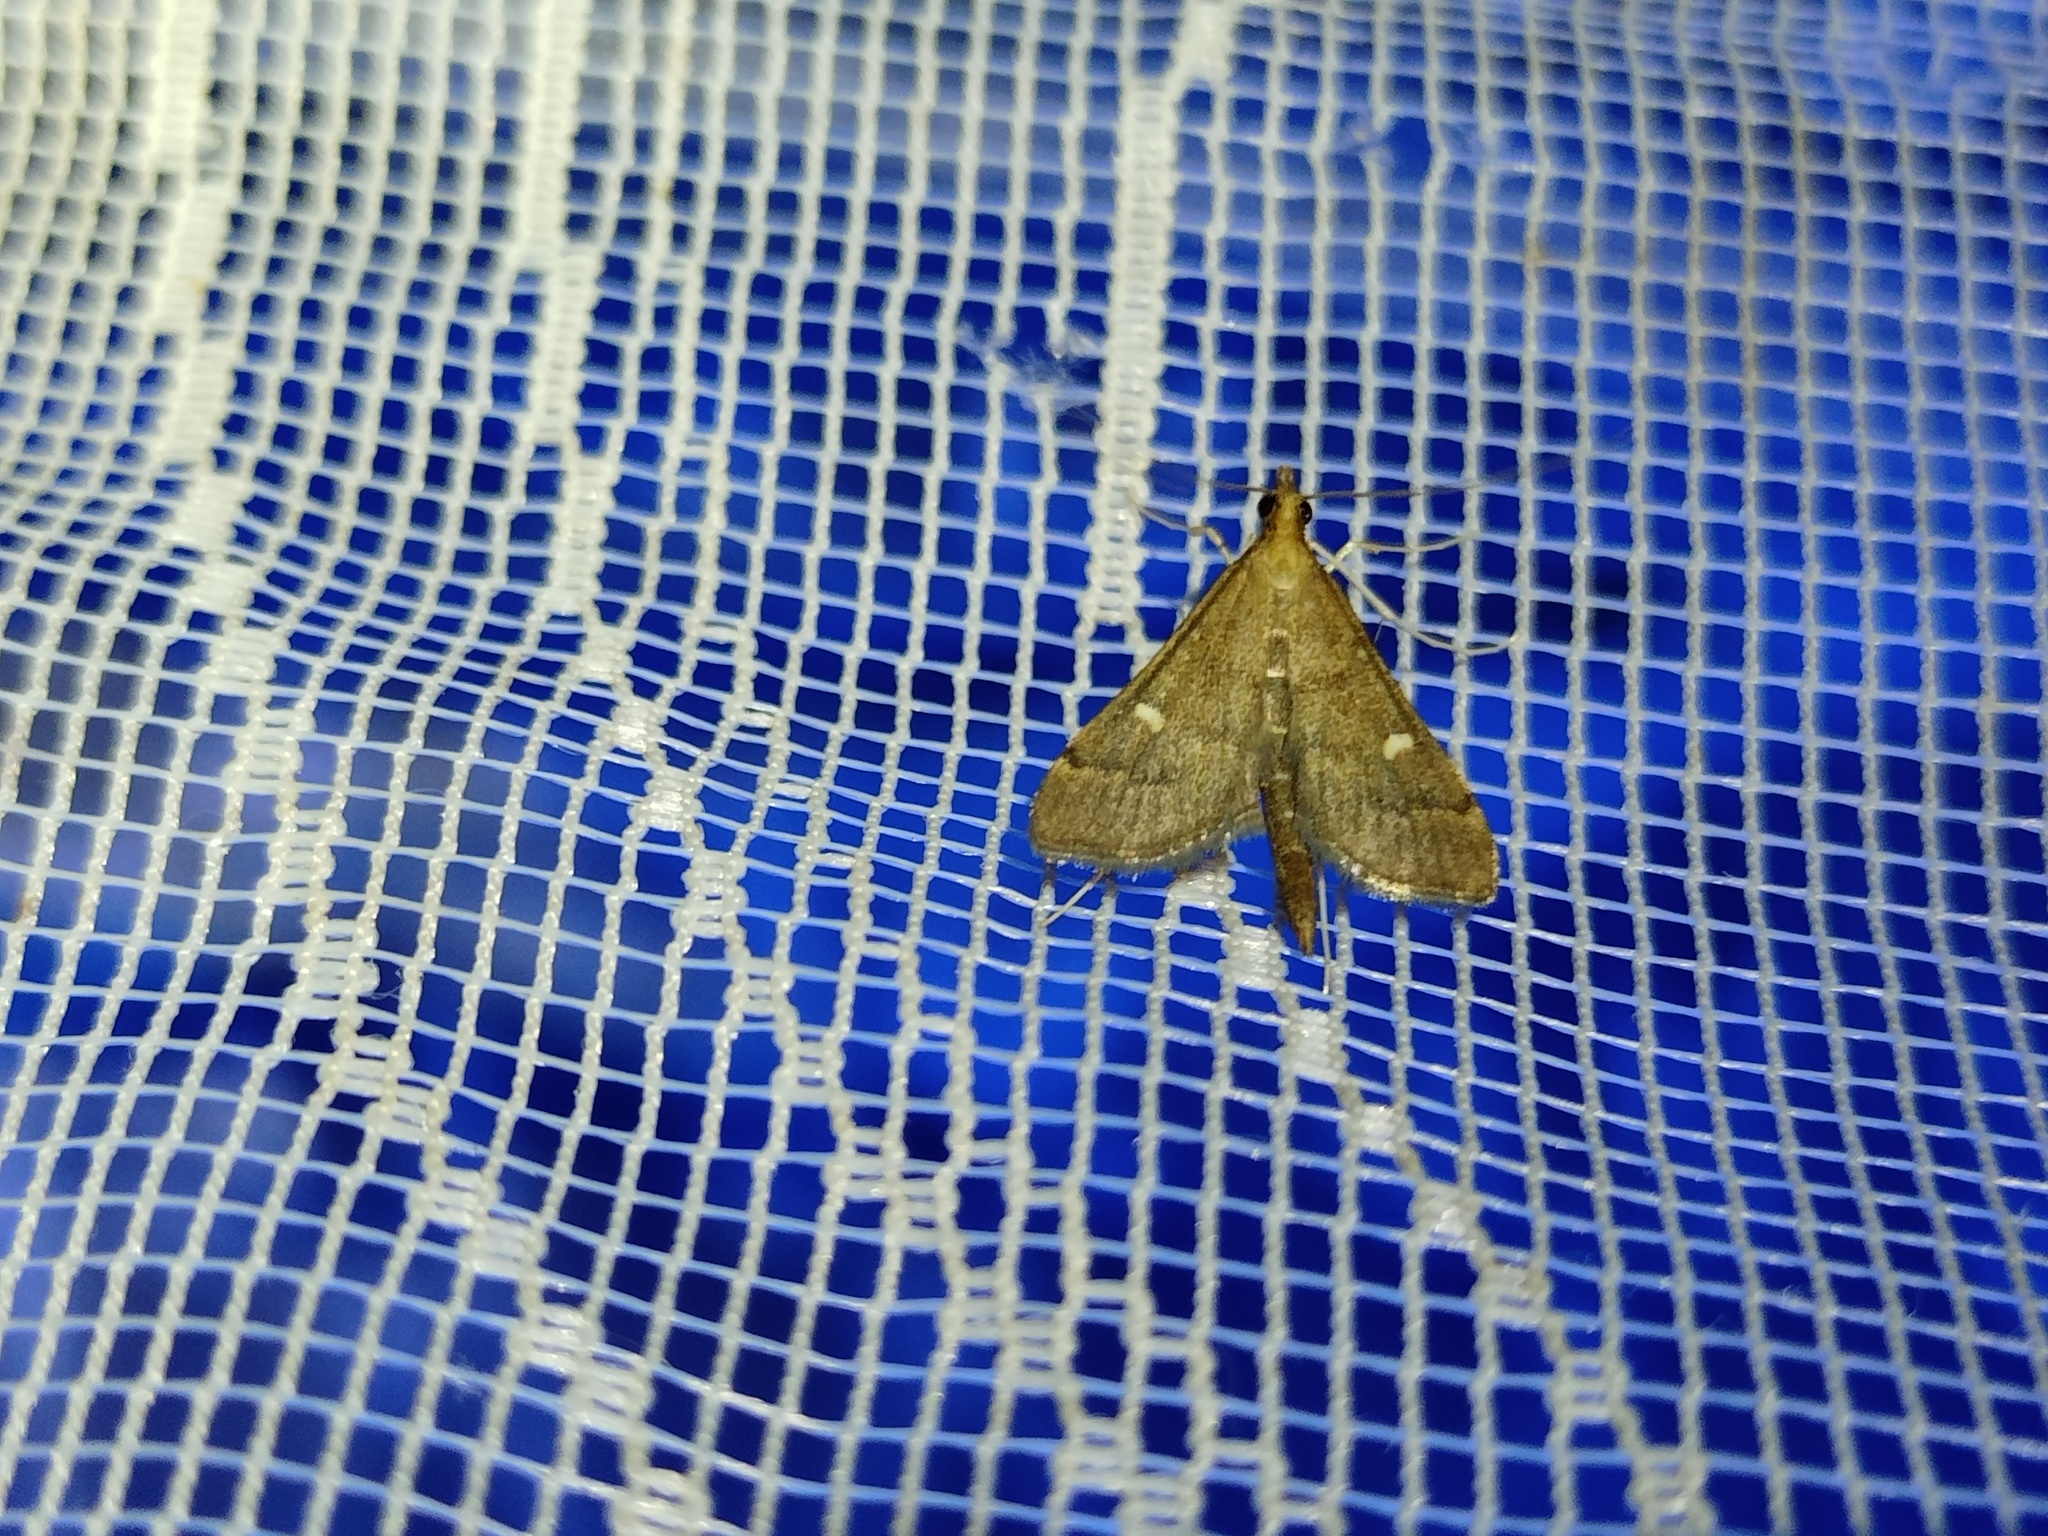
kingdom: Animalia
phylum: Arthropoda
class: Insecta
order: Lepidoptera
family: Crambidae
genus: Stenia
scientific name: Stenia Dolicharthria punctalis
